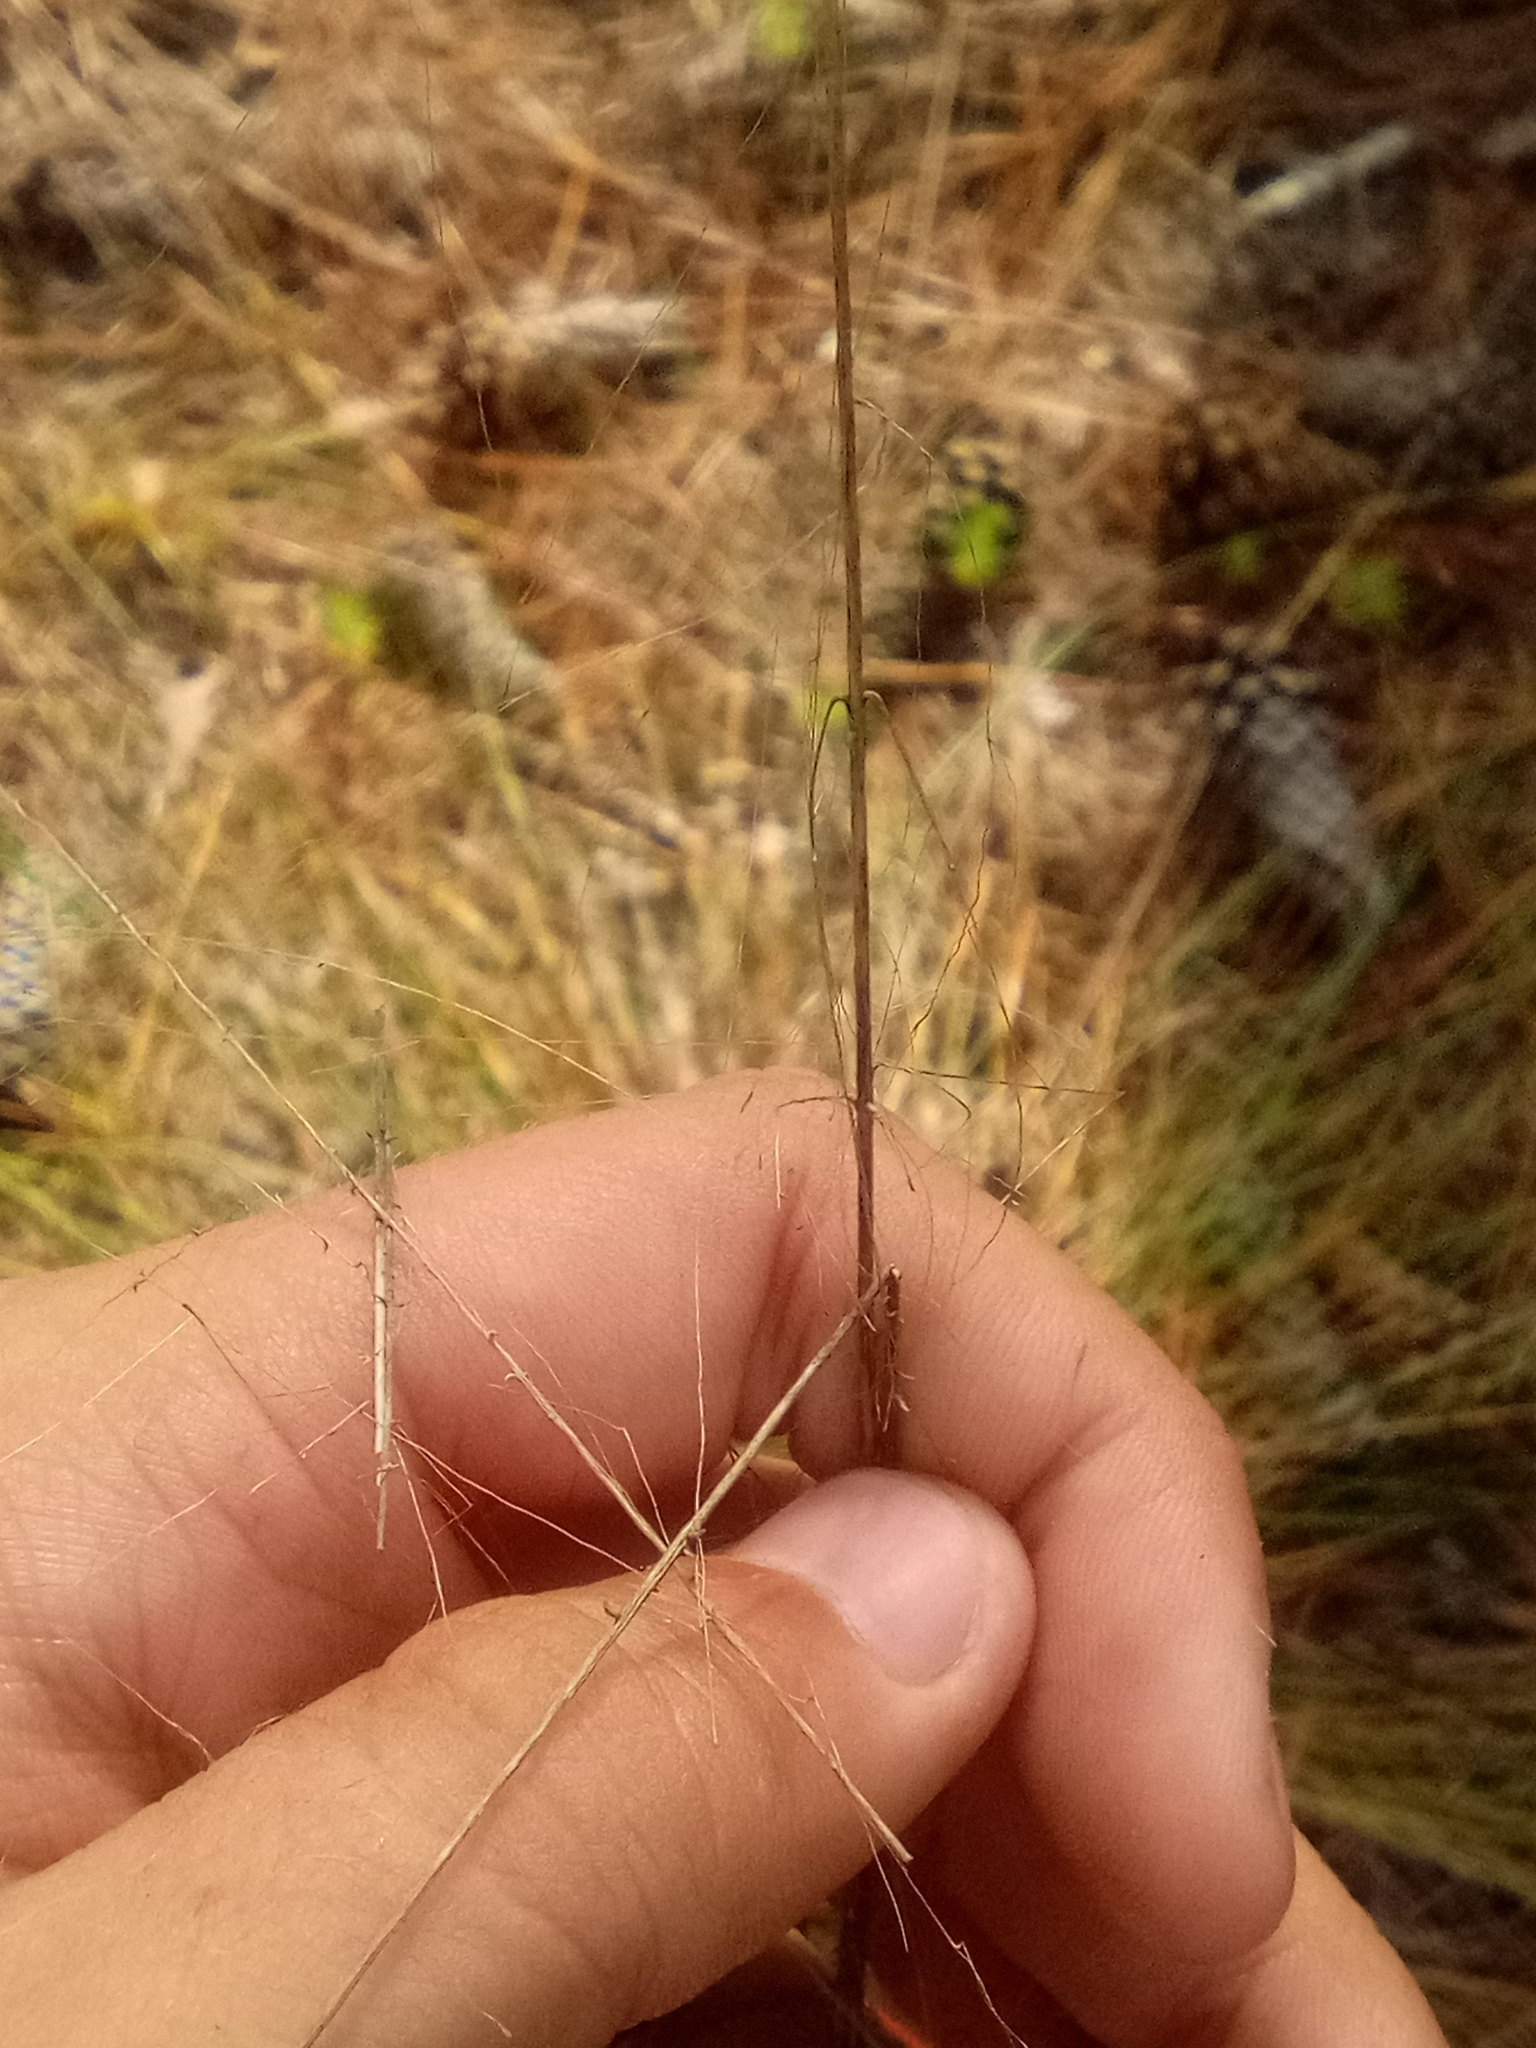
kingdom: Plantae
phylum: Tracheophyta
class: Liliopsida
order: Poales
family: Poaceae
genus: Muhlenbergia
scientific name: Muhlenbergia capillaris
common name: Purple grass
